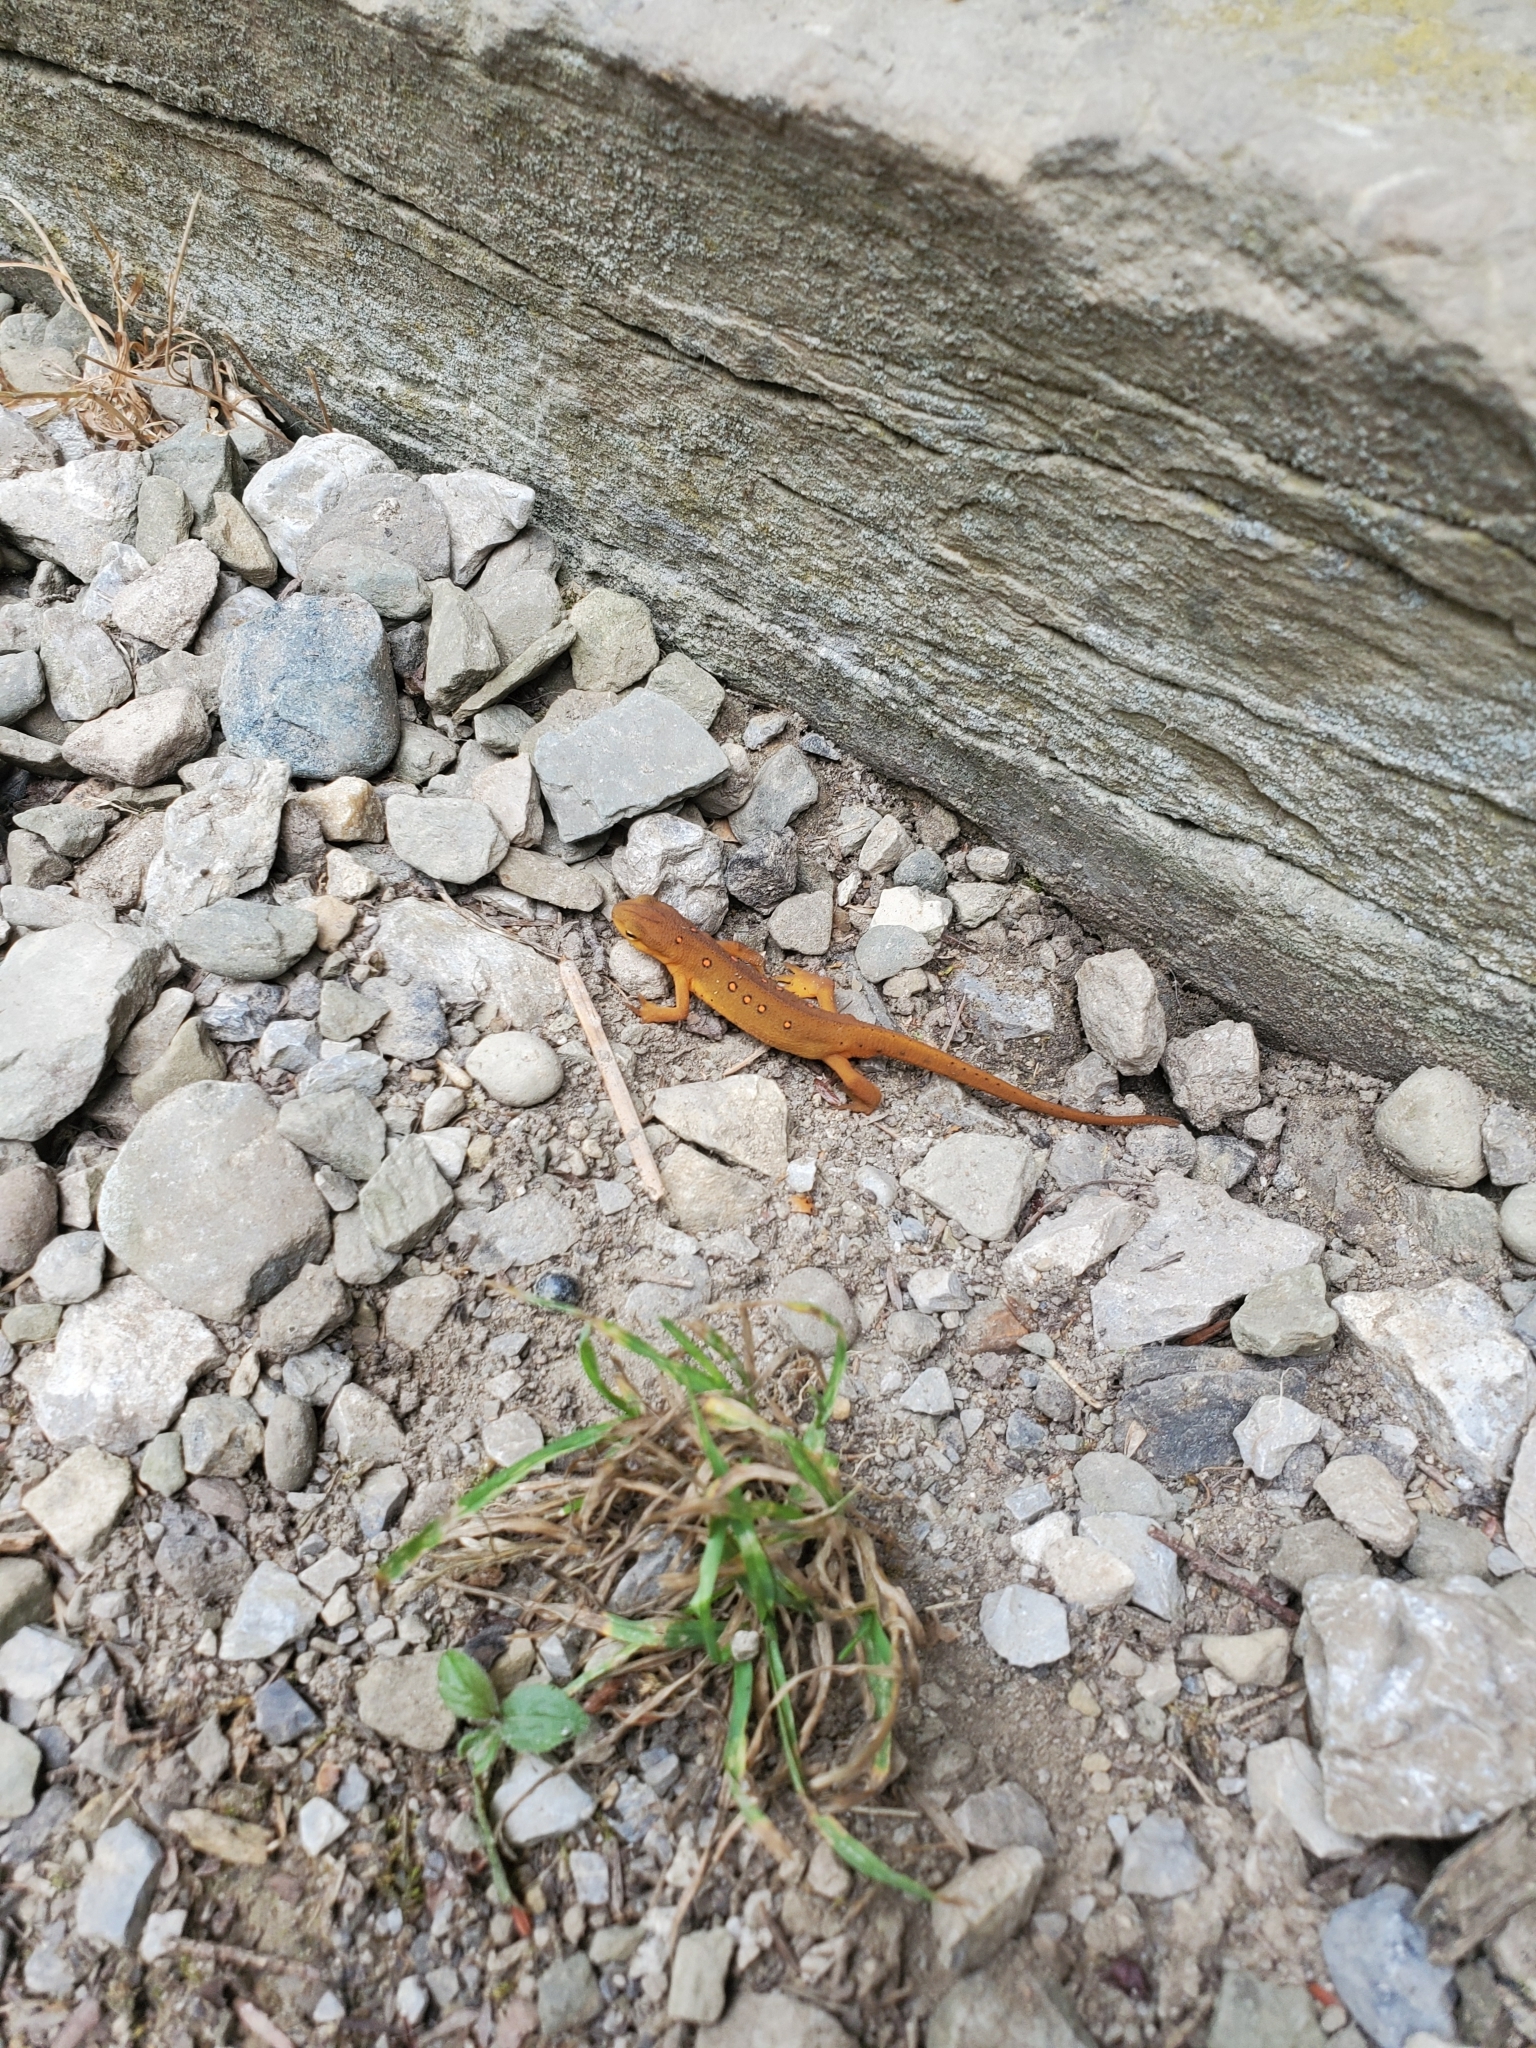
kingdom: Animalia
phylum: Chordata
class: Amphibia
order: Caudata
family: Salamandridae
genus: Notophthalmus
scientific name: Notophthalmus viridescens
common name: Eastern newt
